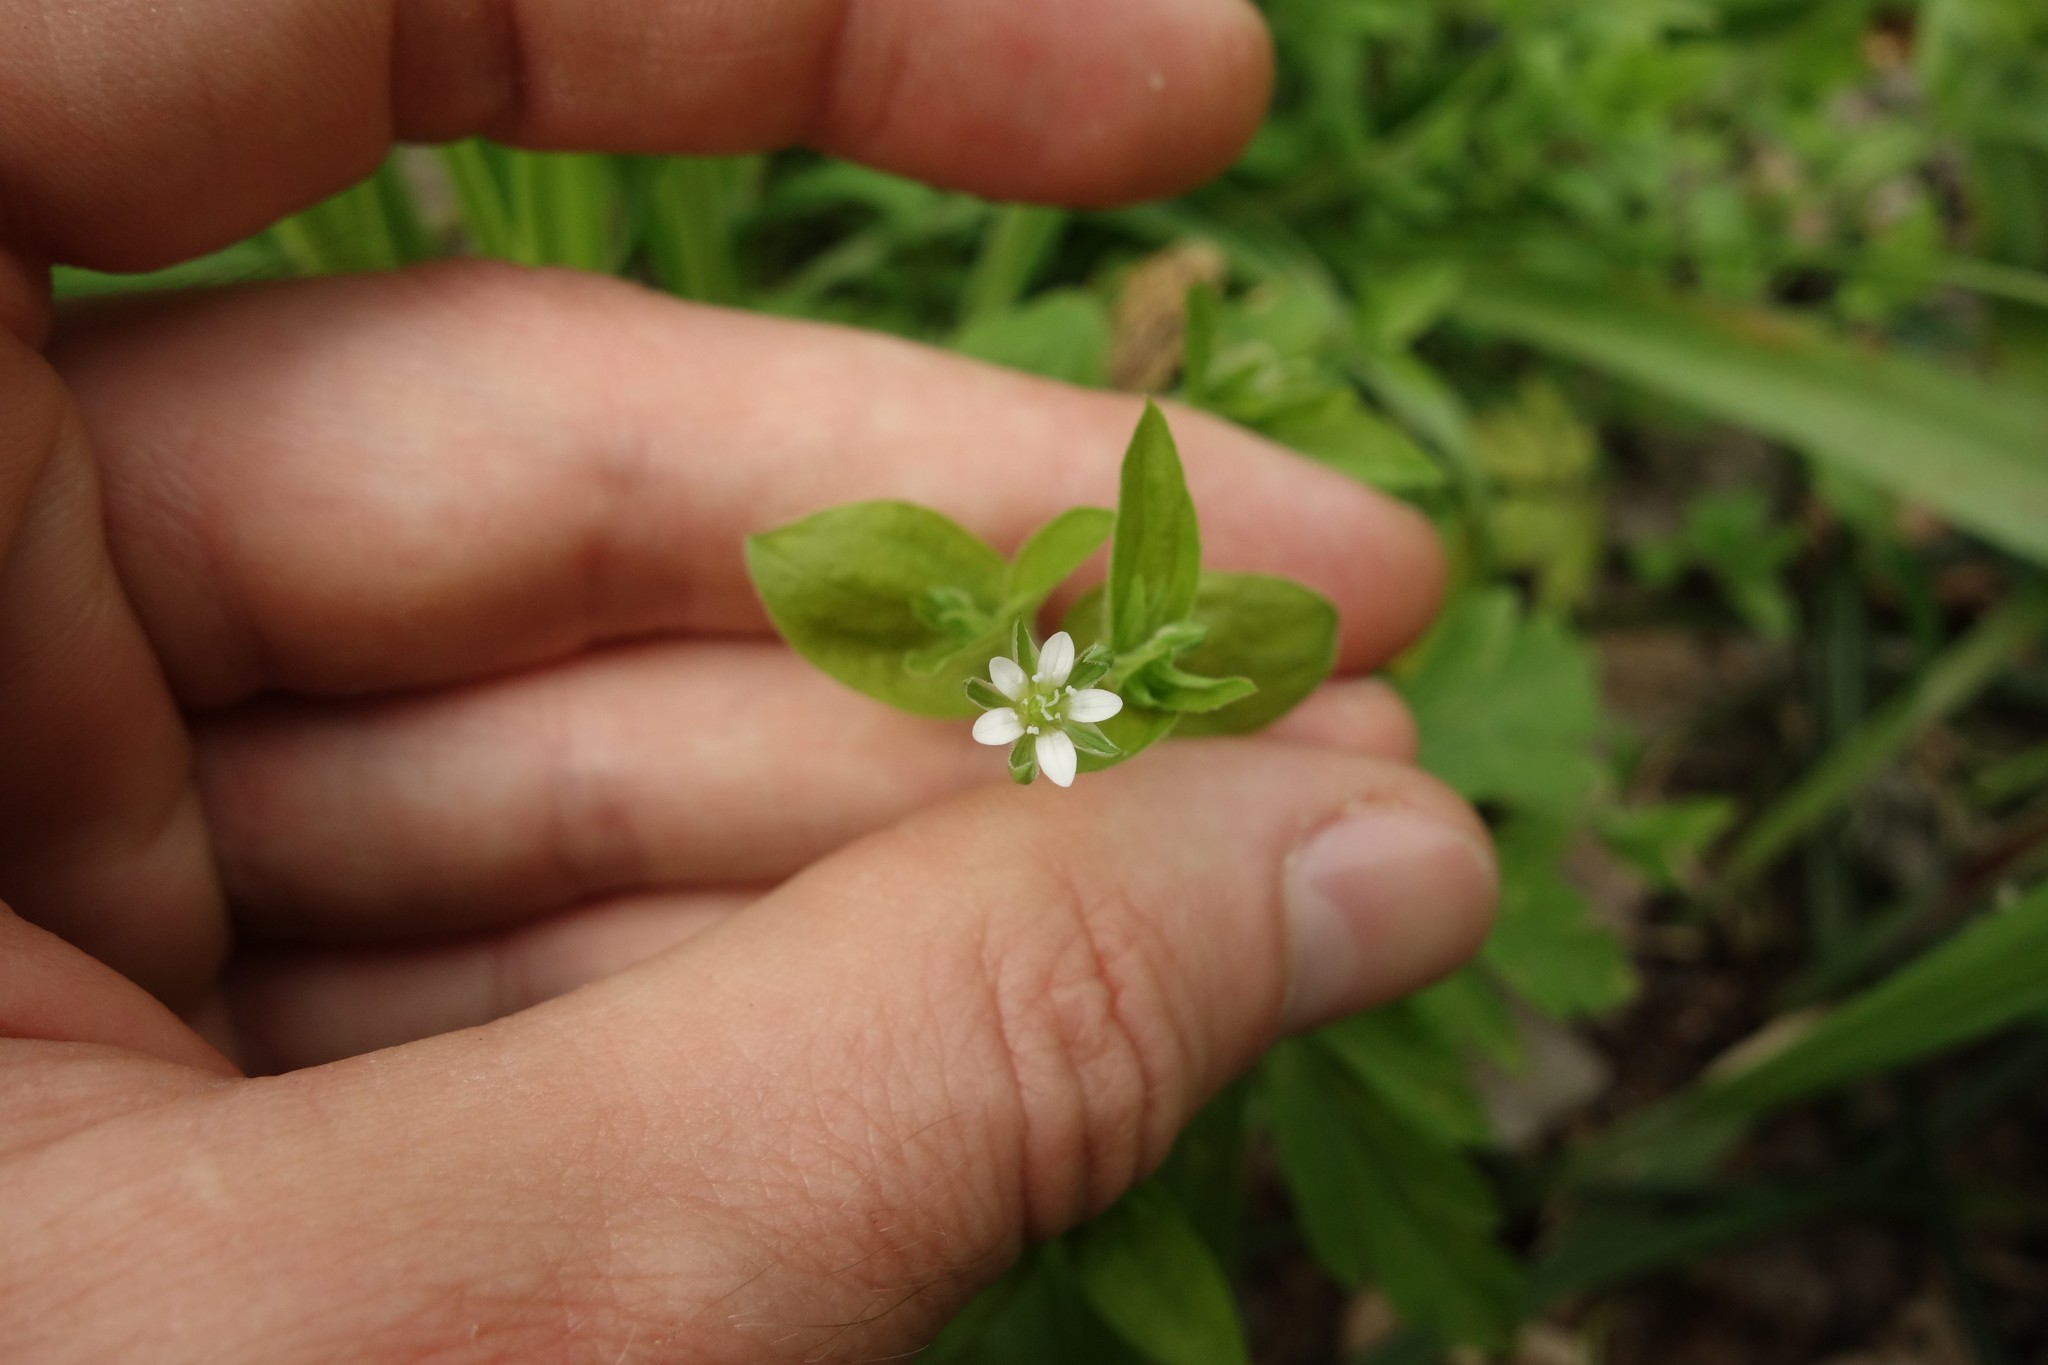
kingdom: Plantae
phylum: Tracheophyta
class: Magnoliopsida
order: Caryophyllales
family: Caryophyllaceae
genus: Moehringia
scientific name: Moehringia trinervia
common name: Three-nerved sandwort
